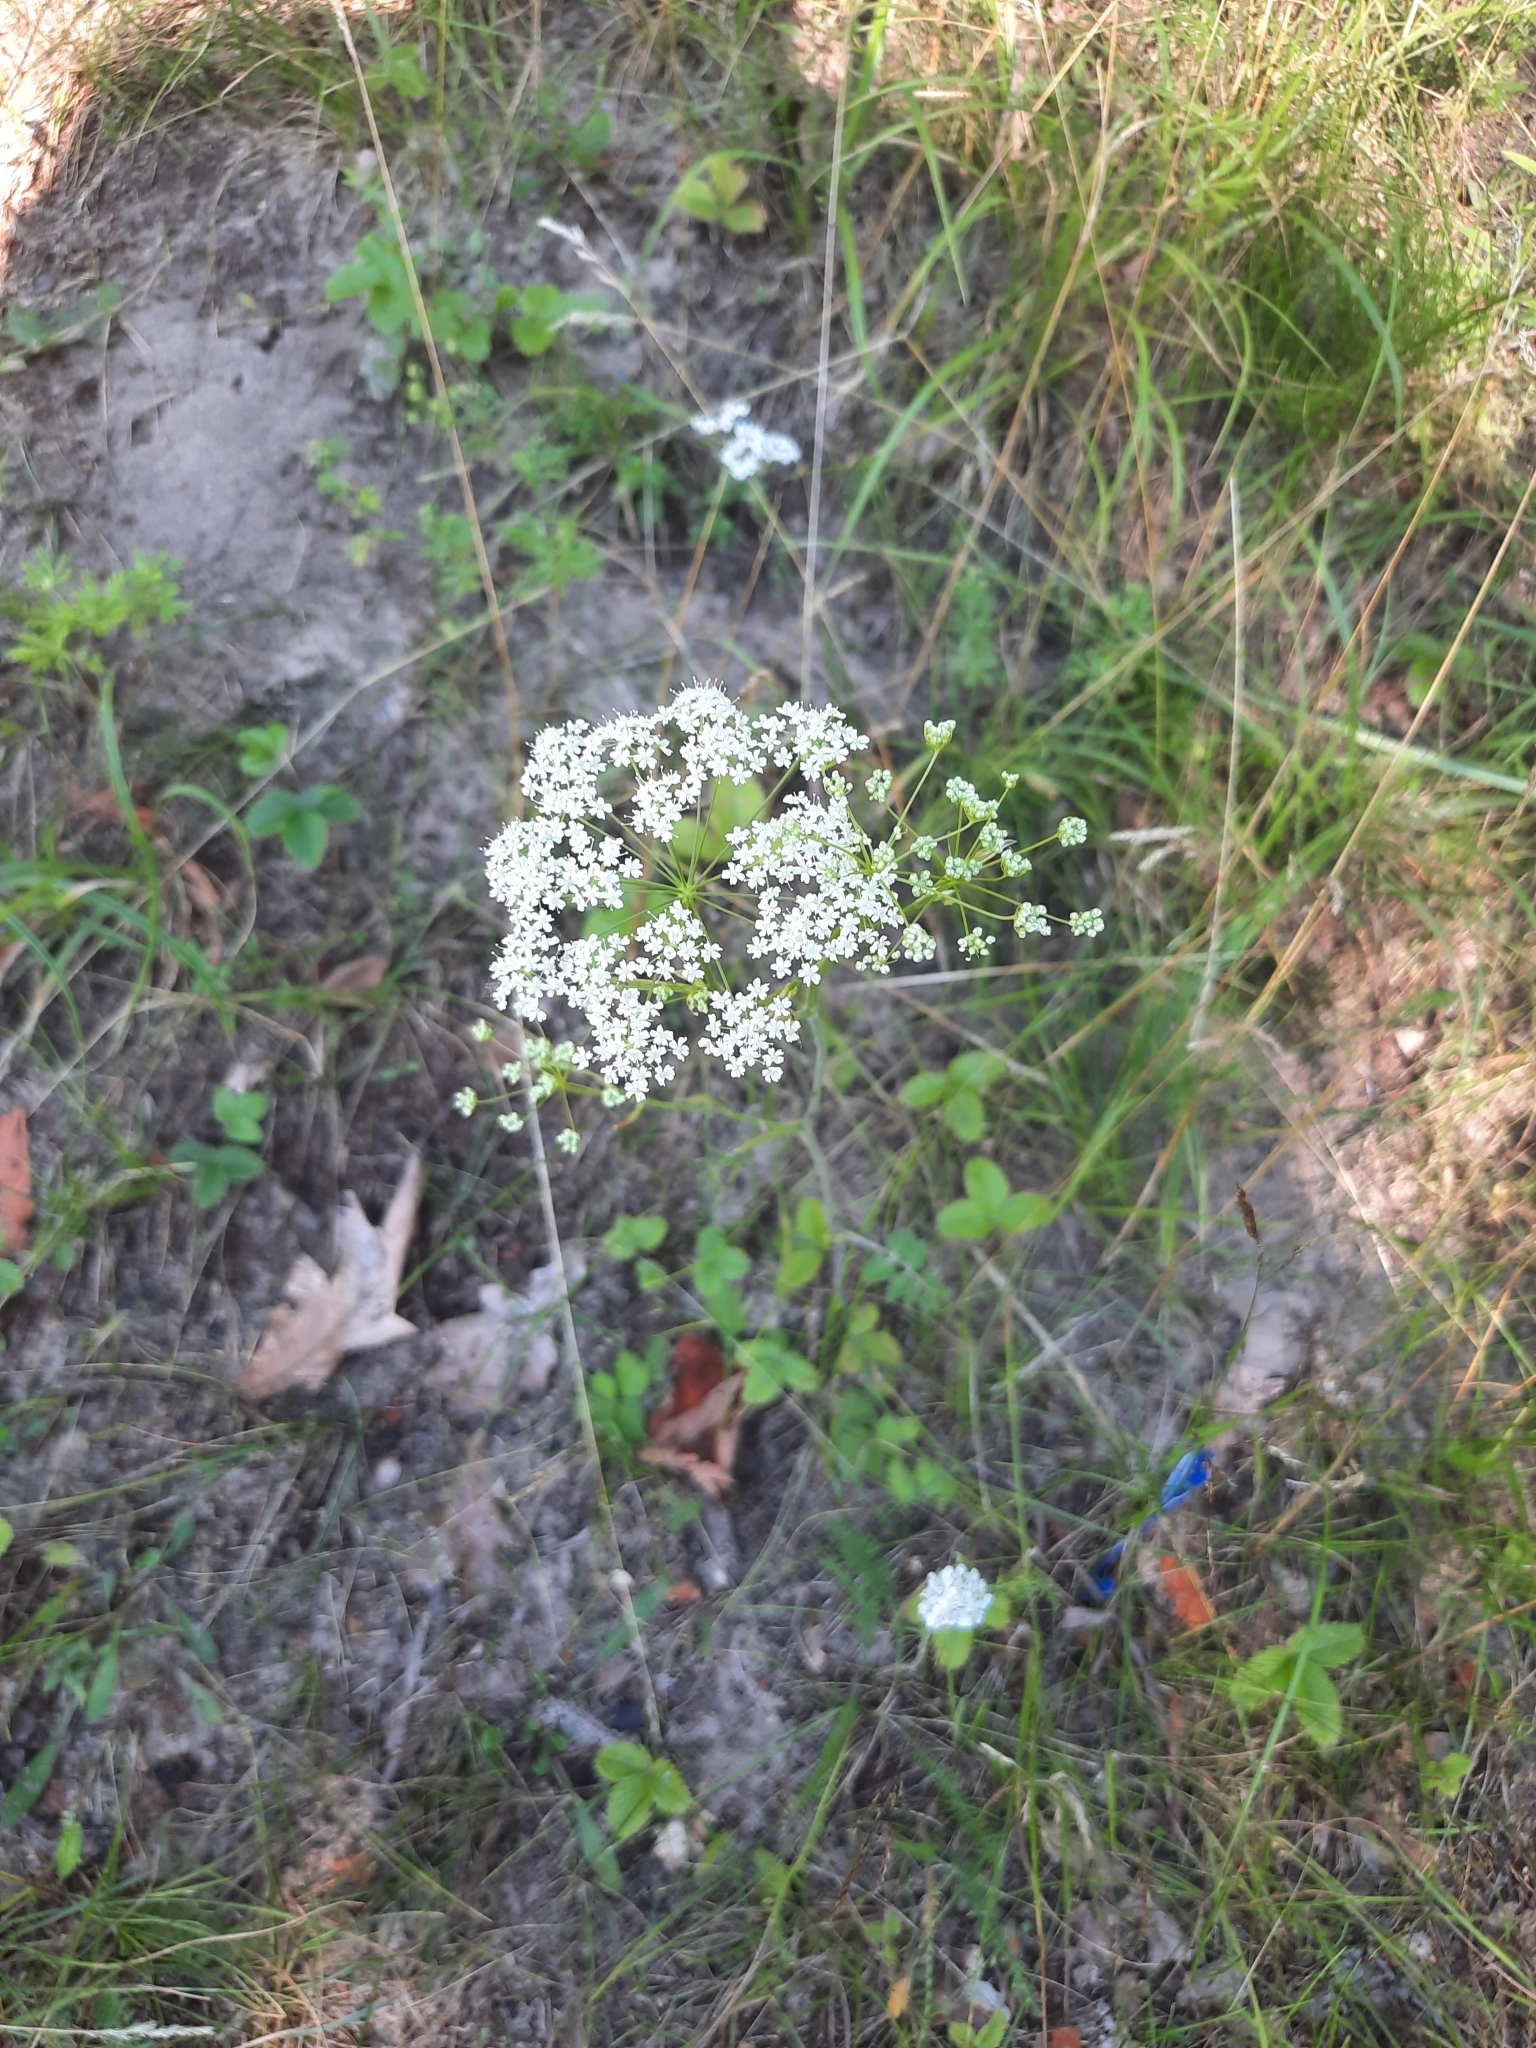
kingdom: Plantae
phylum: Tracheophyta
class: Magnoliopsida
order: Apiales
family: Apiaceae
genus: Pimpinella
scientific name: Pimpinella saxifraga
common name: Burnet-saxifrage
